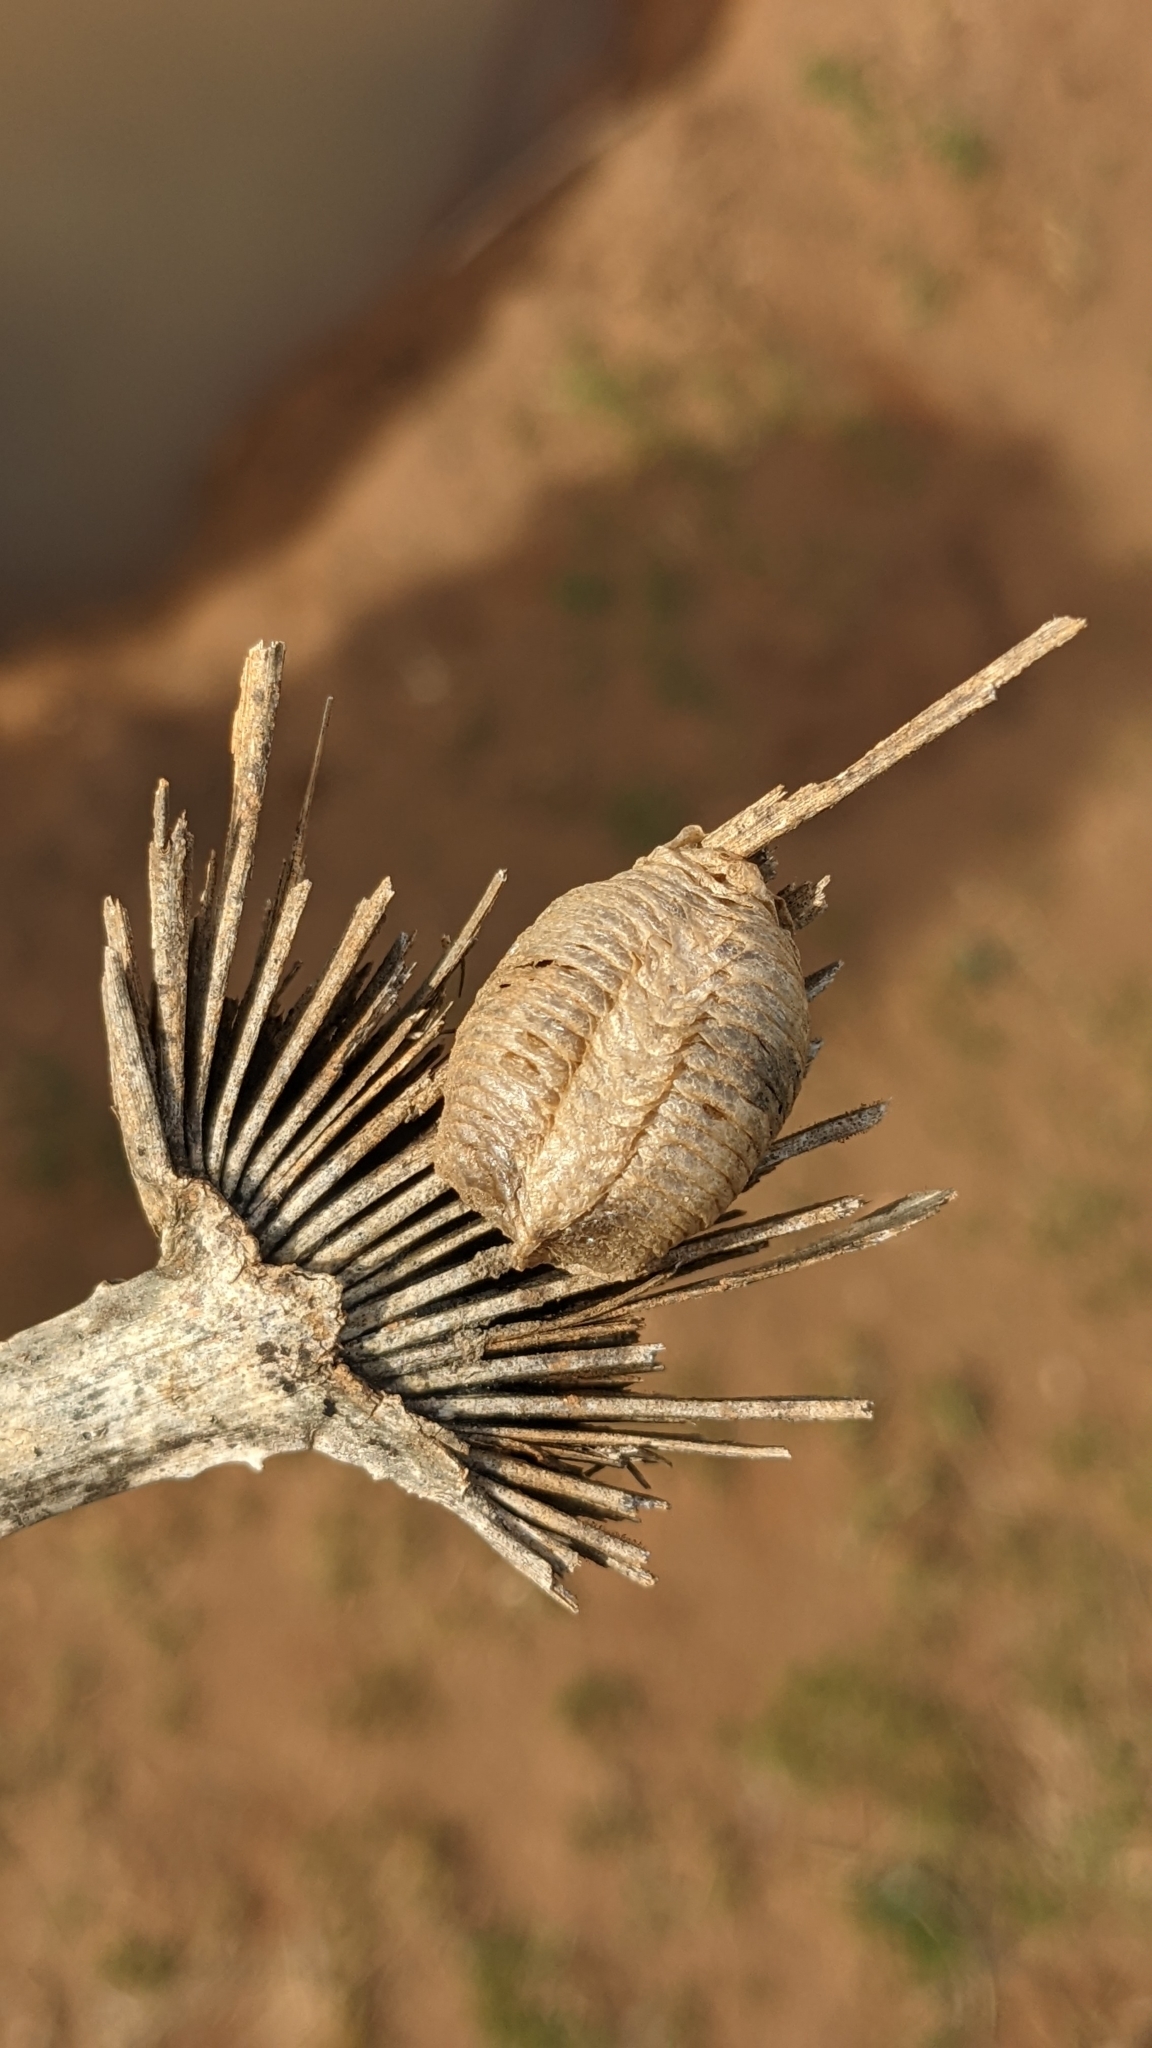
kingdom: Animalia
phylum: Arthropoda
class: Insecta
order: Mantodea
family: Mantidae
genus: Mantis
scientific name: Mantis religiosa
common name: Praying mantis
